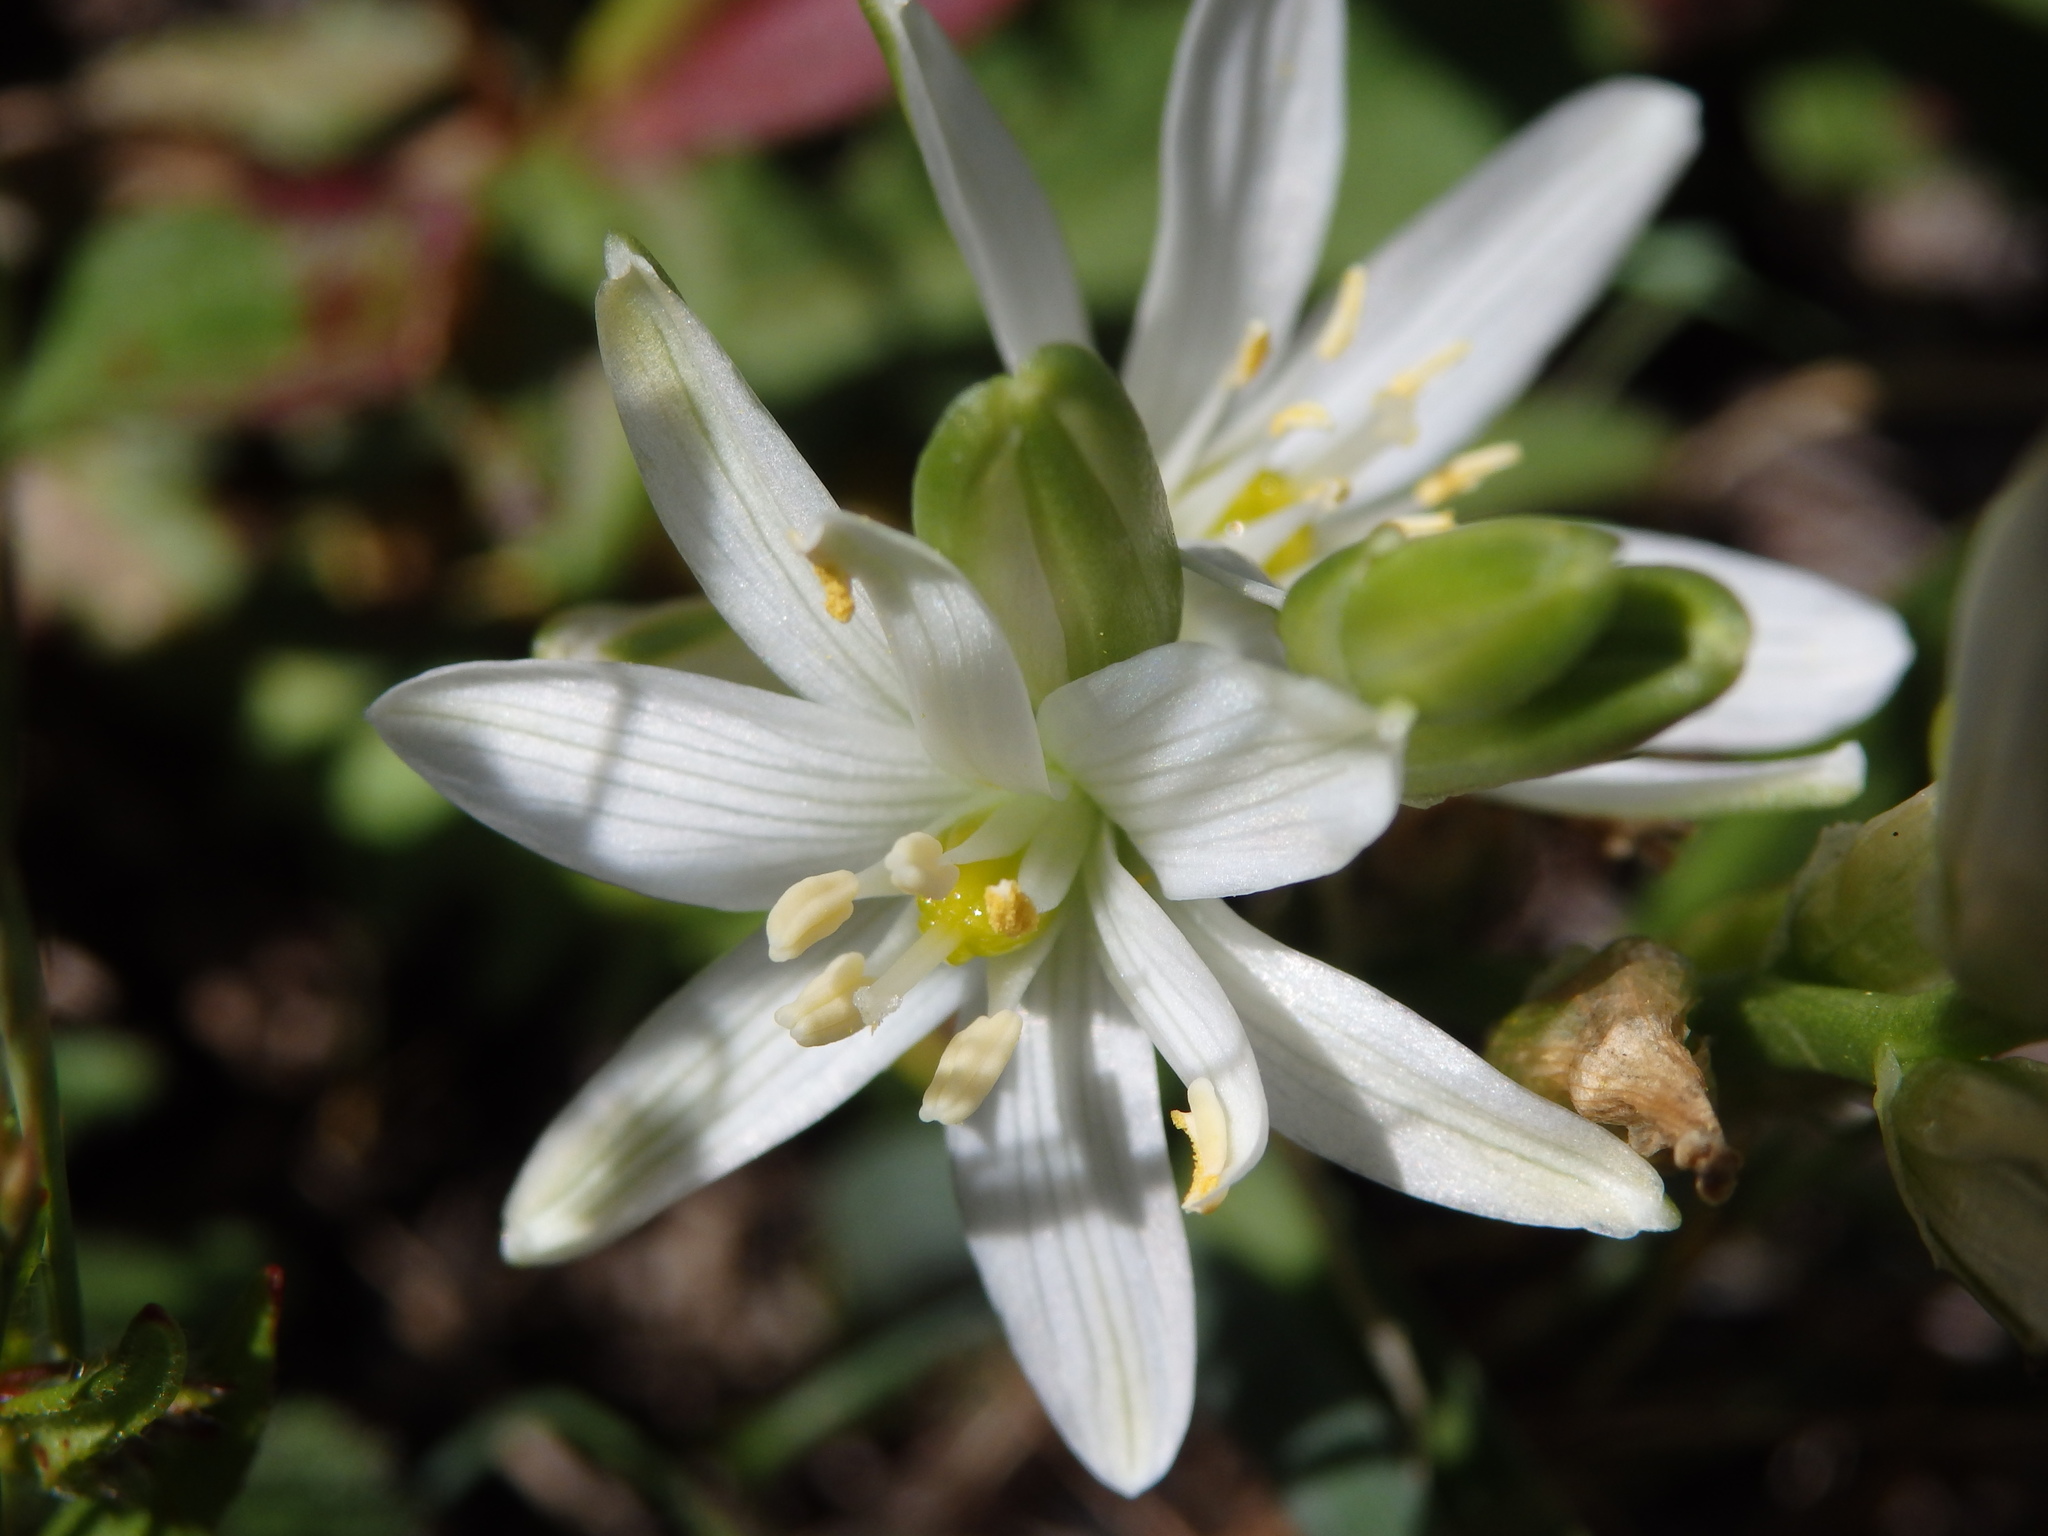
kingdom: Plantae
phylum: Tracheophyta
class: Liliopsida
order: Asparagales
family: Asparagaceae
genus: Ornithogalum
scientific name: Ornithogalum concinnum
